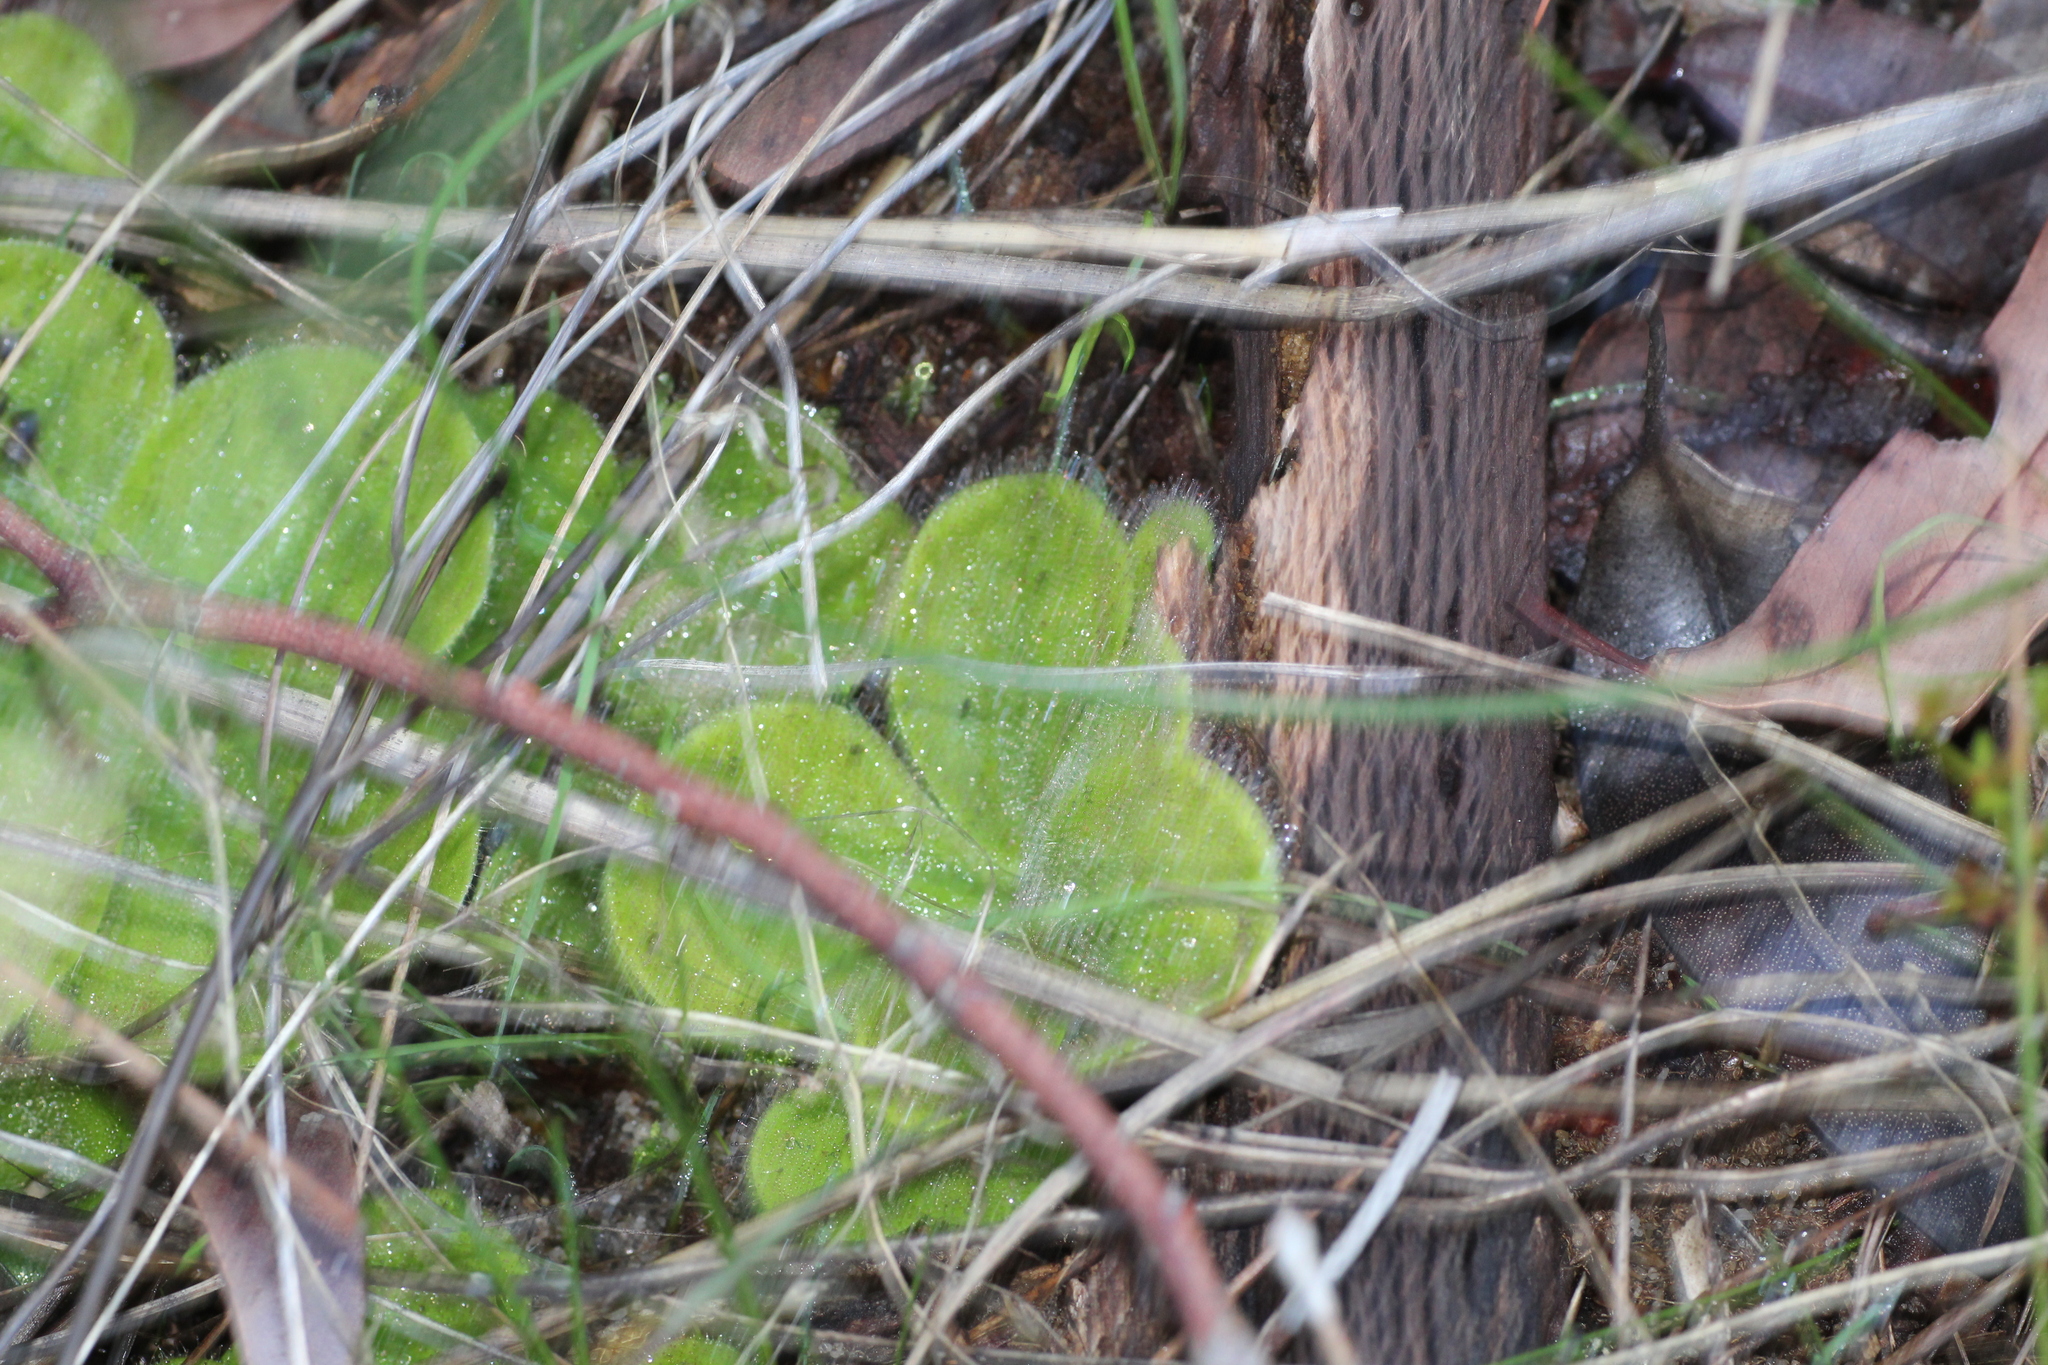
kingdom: Plantae
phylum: Tracheophyta
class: Magnoliopsida
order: Caryophyllales
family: Droseraceae
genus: Drosera
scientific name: Drosera erythrorhiza
